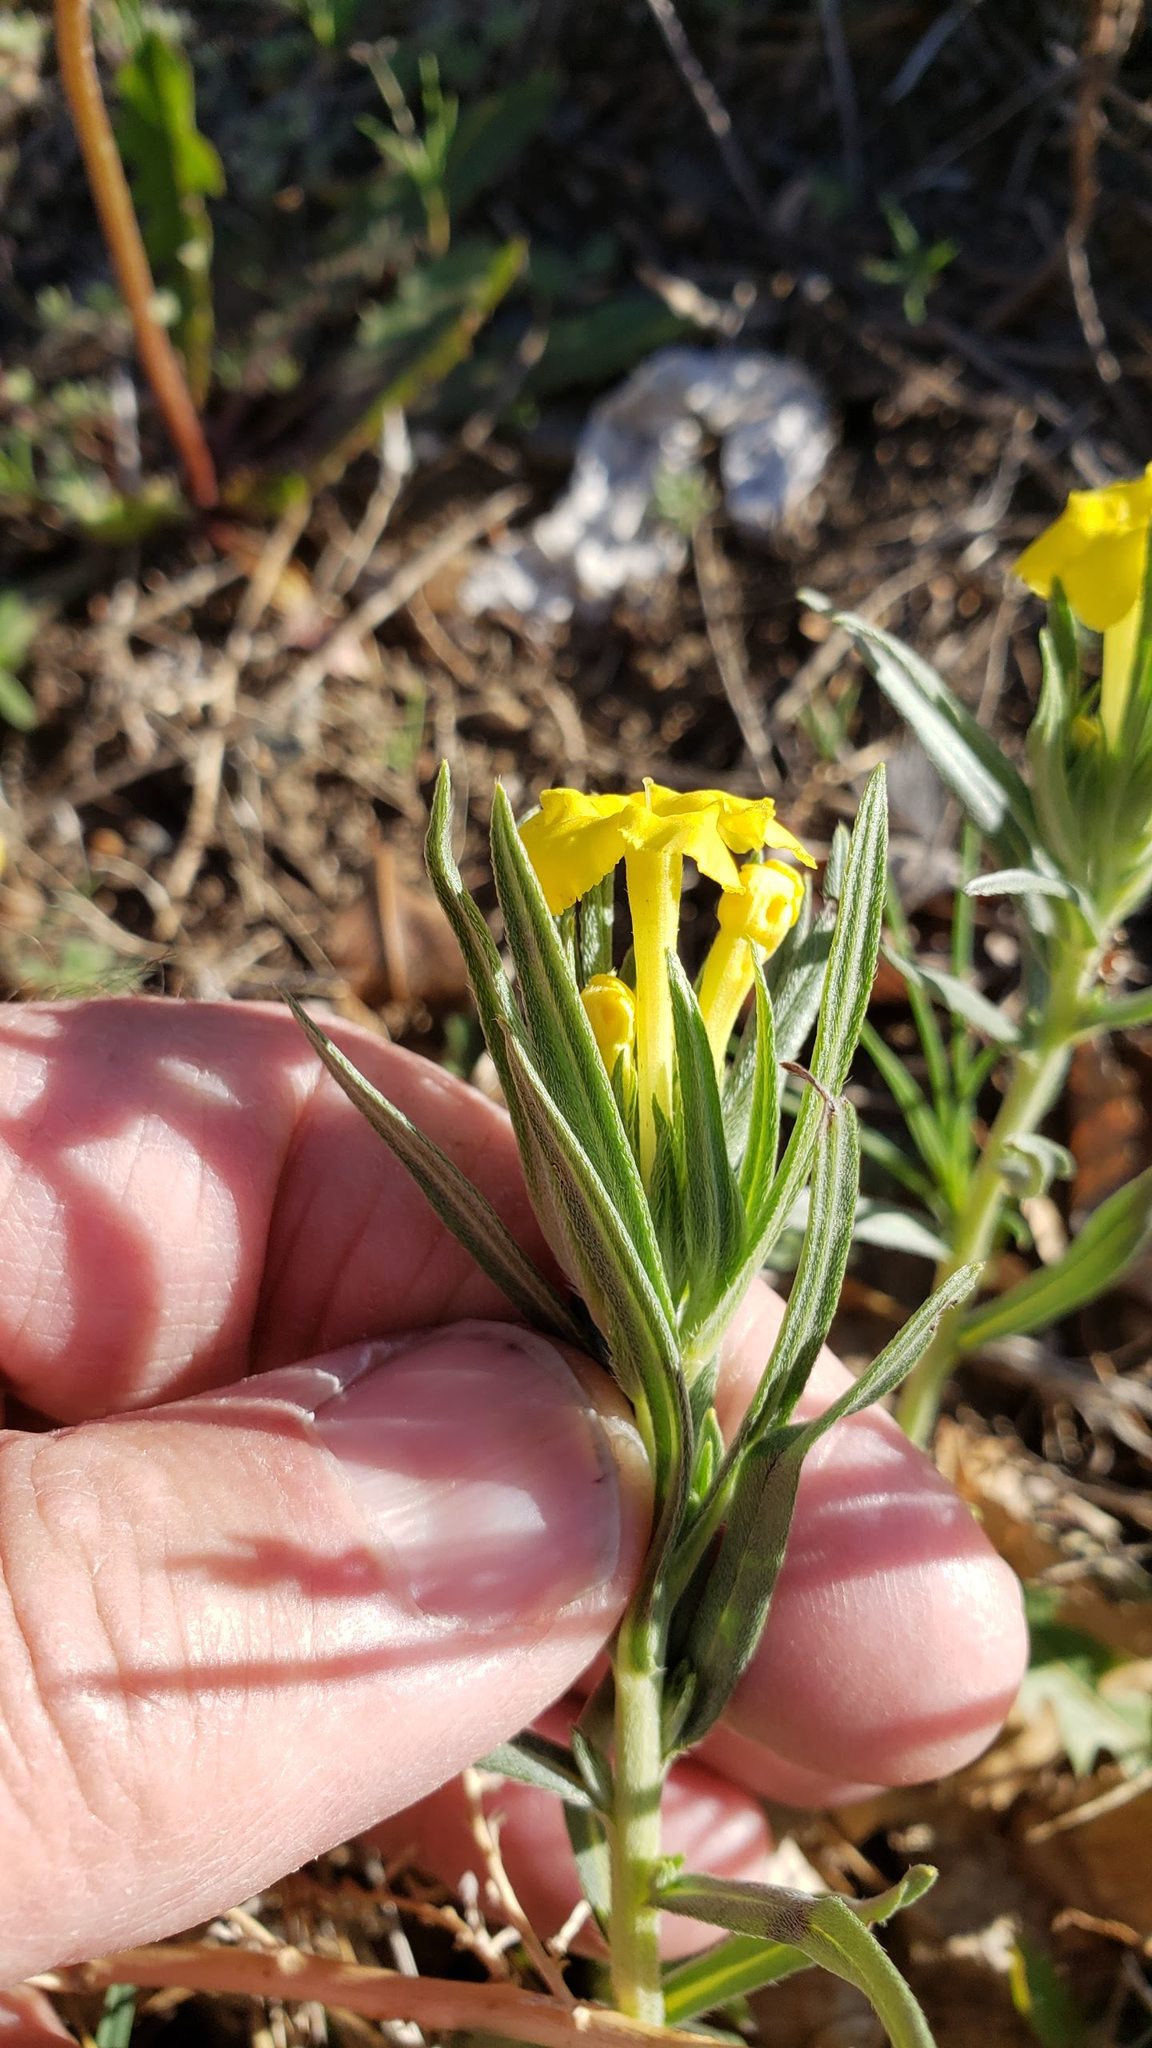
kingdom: Plantae
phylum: Tracheophyta
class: Magnoliopsida
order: Boraginales
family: Boraginaceae
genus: Lithospermum
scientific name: Lithospermum incisum
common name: Fringed gromwell
